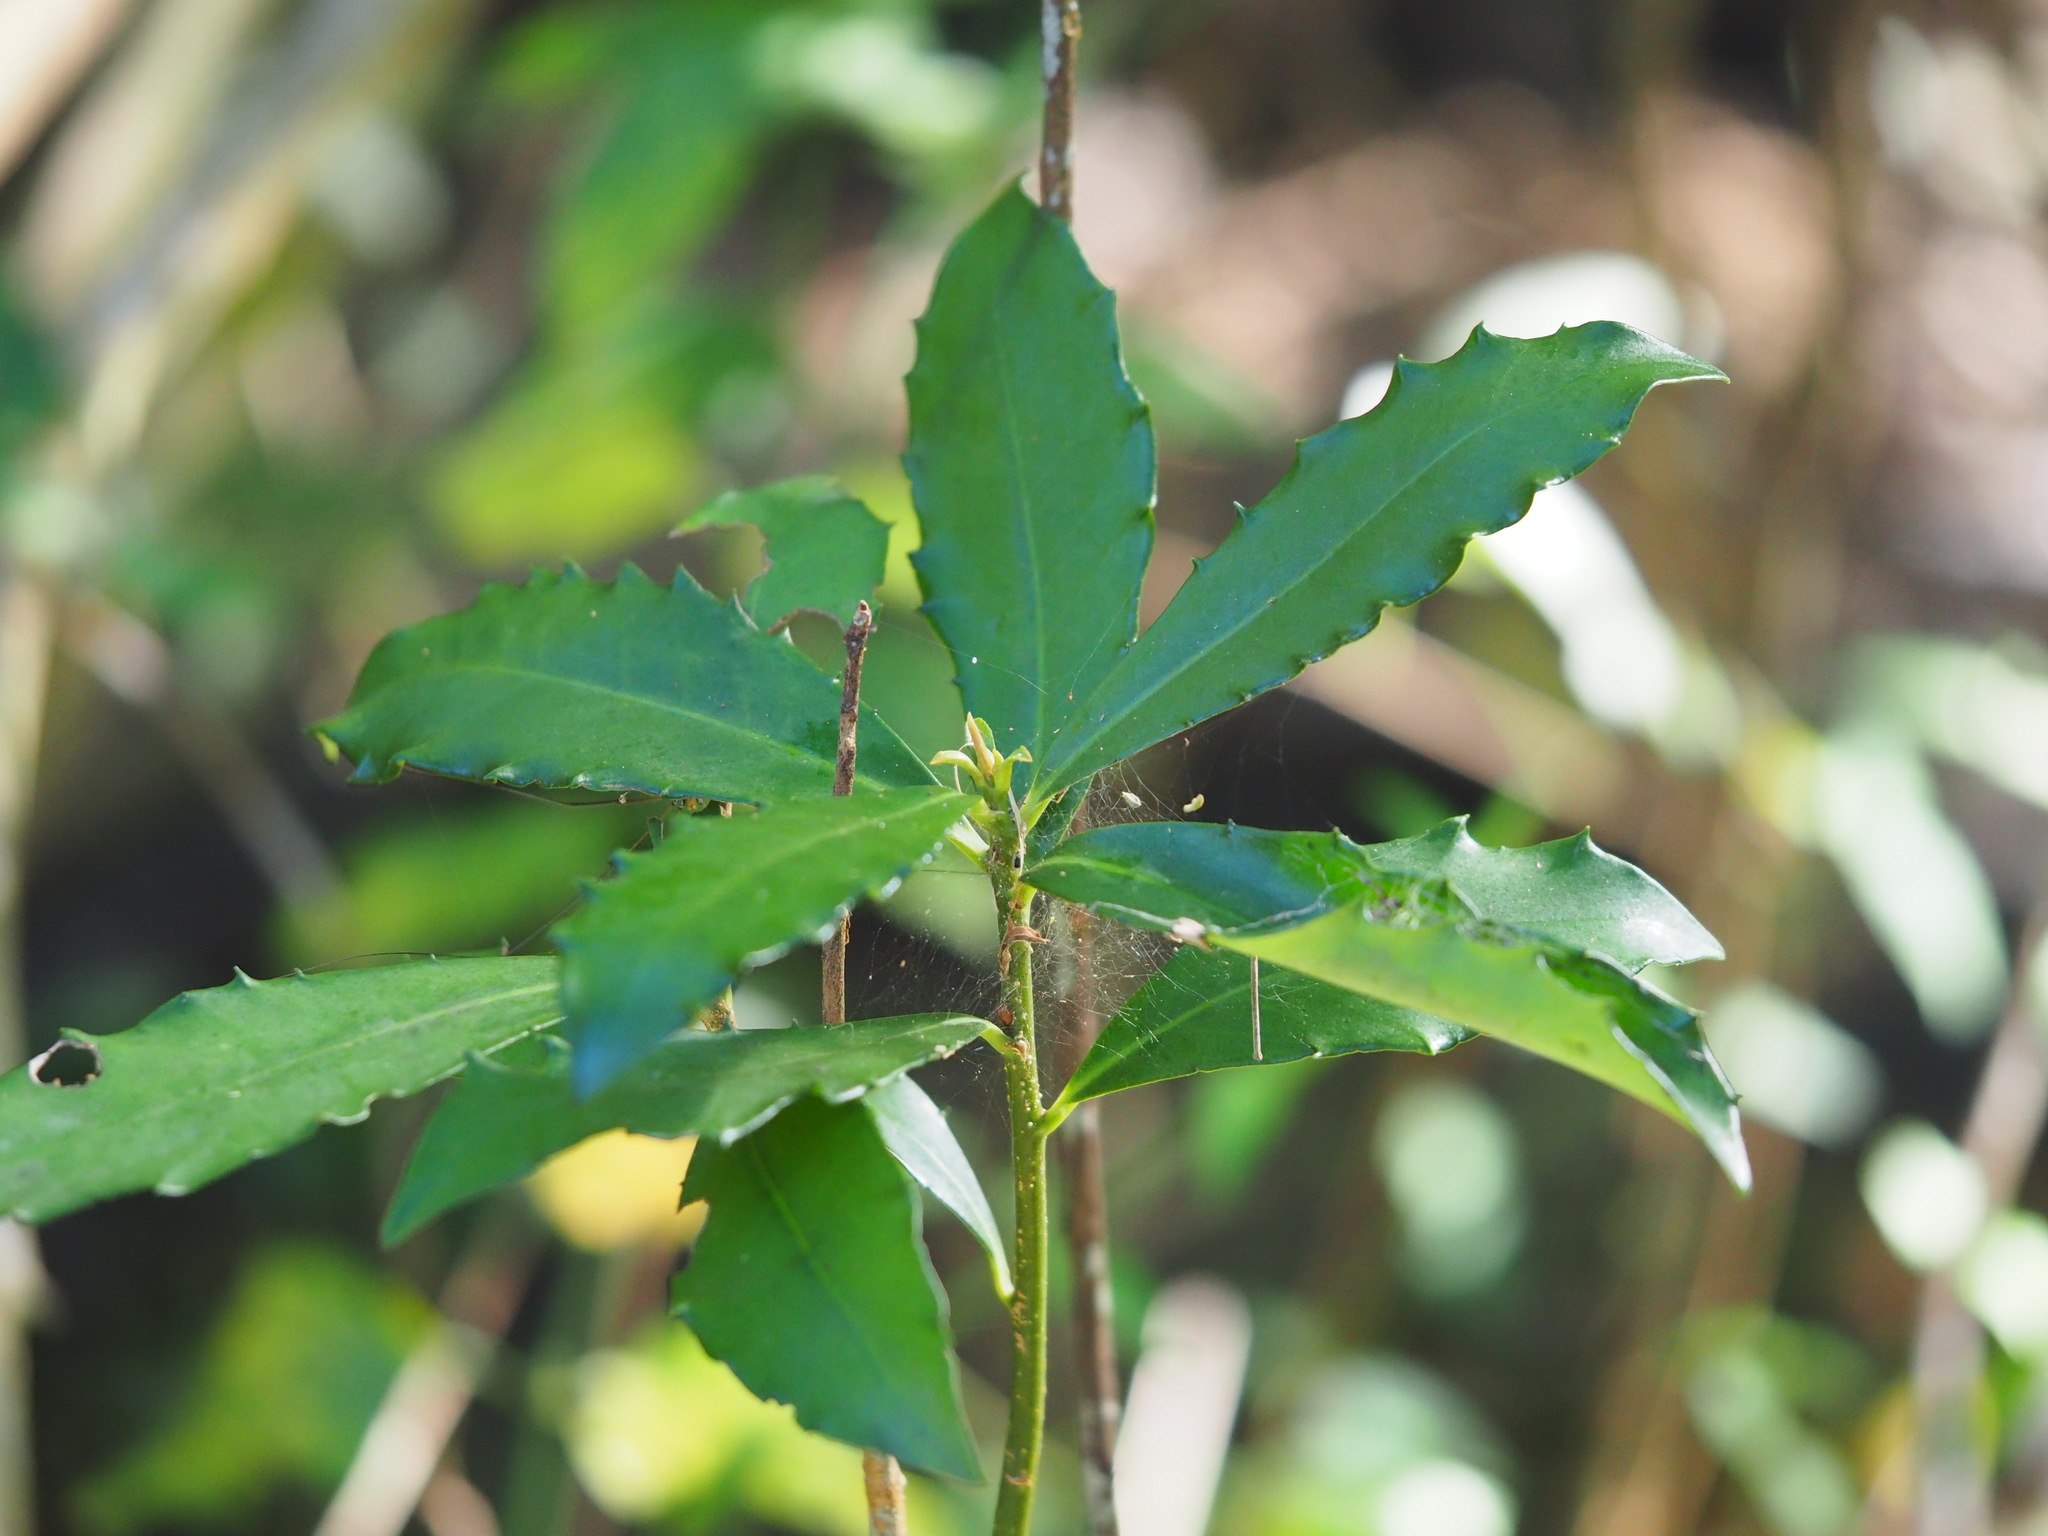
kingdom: Plantae
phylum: Tracheophyta
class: Magnoliopsida
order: Ericales
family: Primulaceae
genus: Ardisia
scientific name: Ardisia cornudentata
